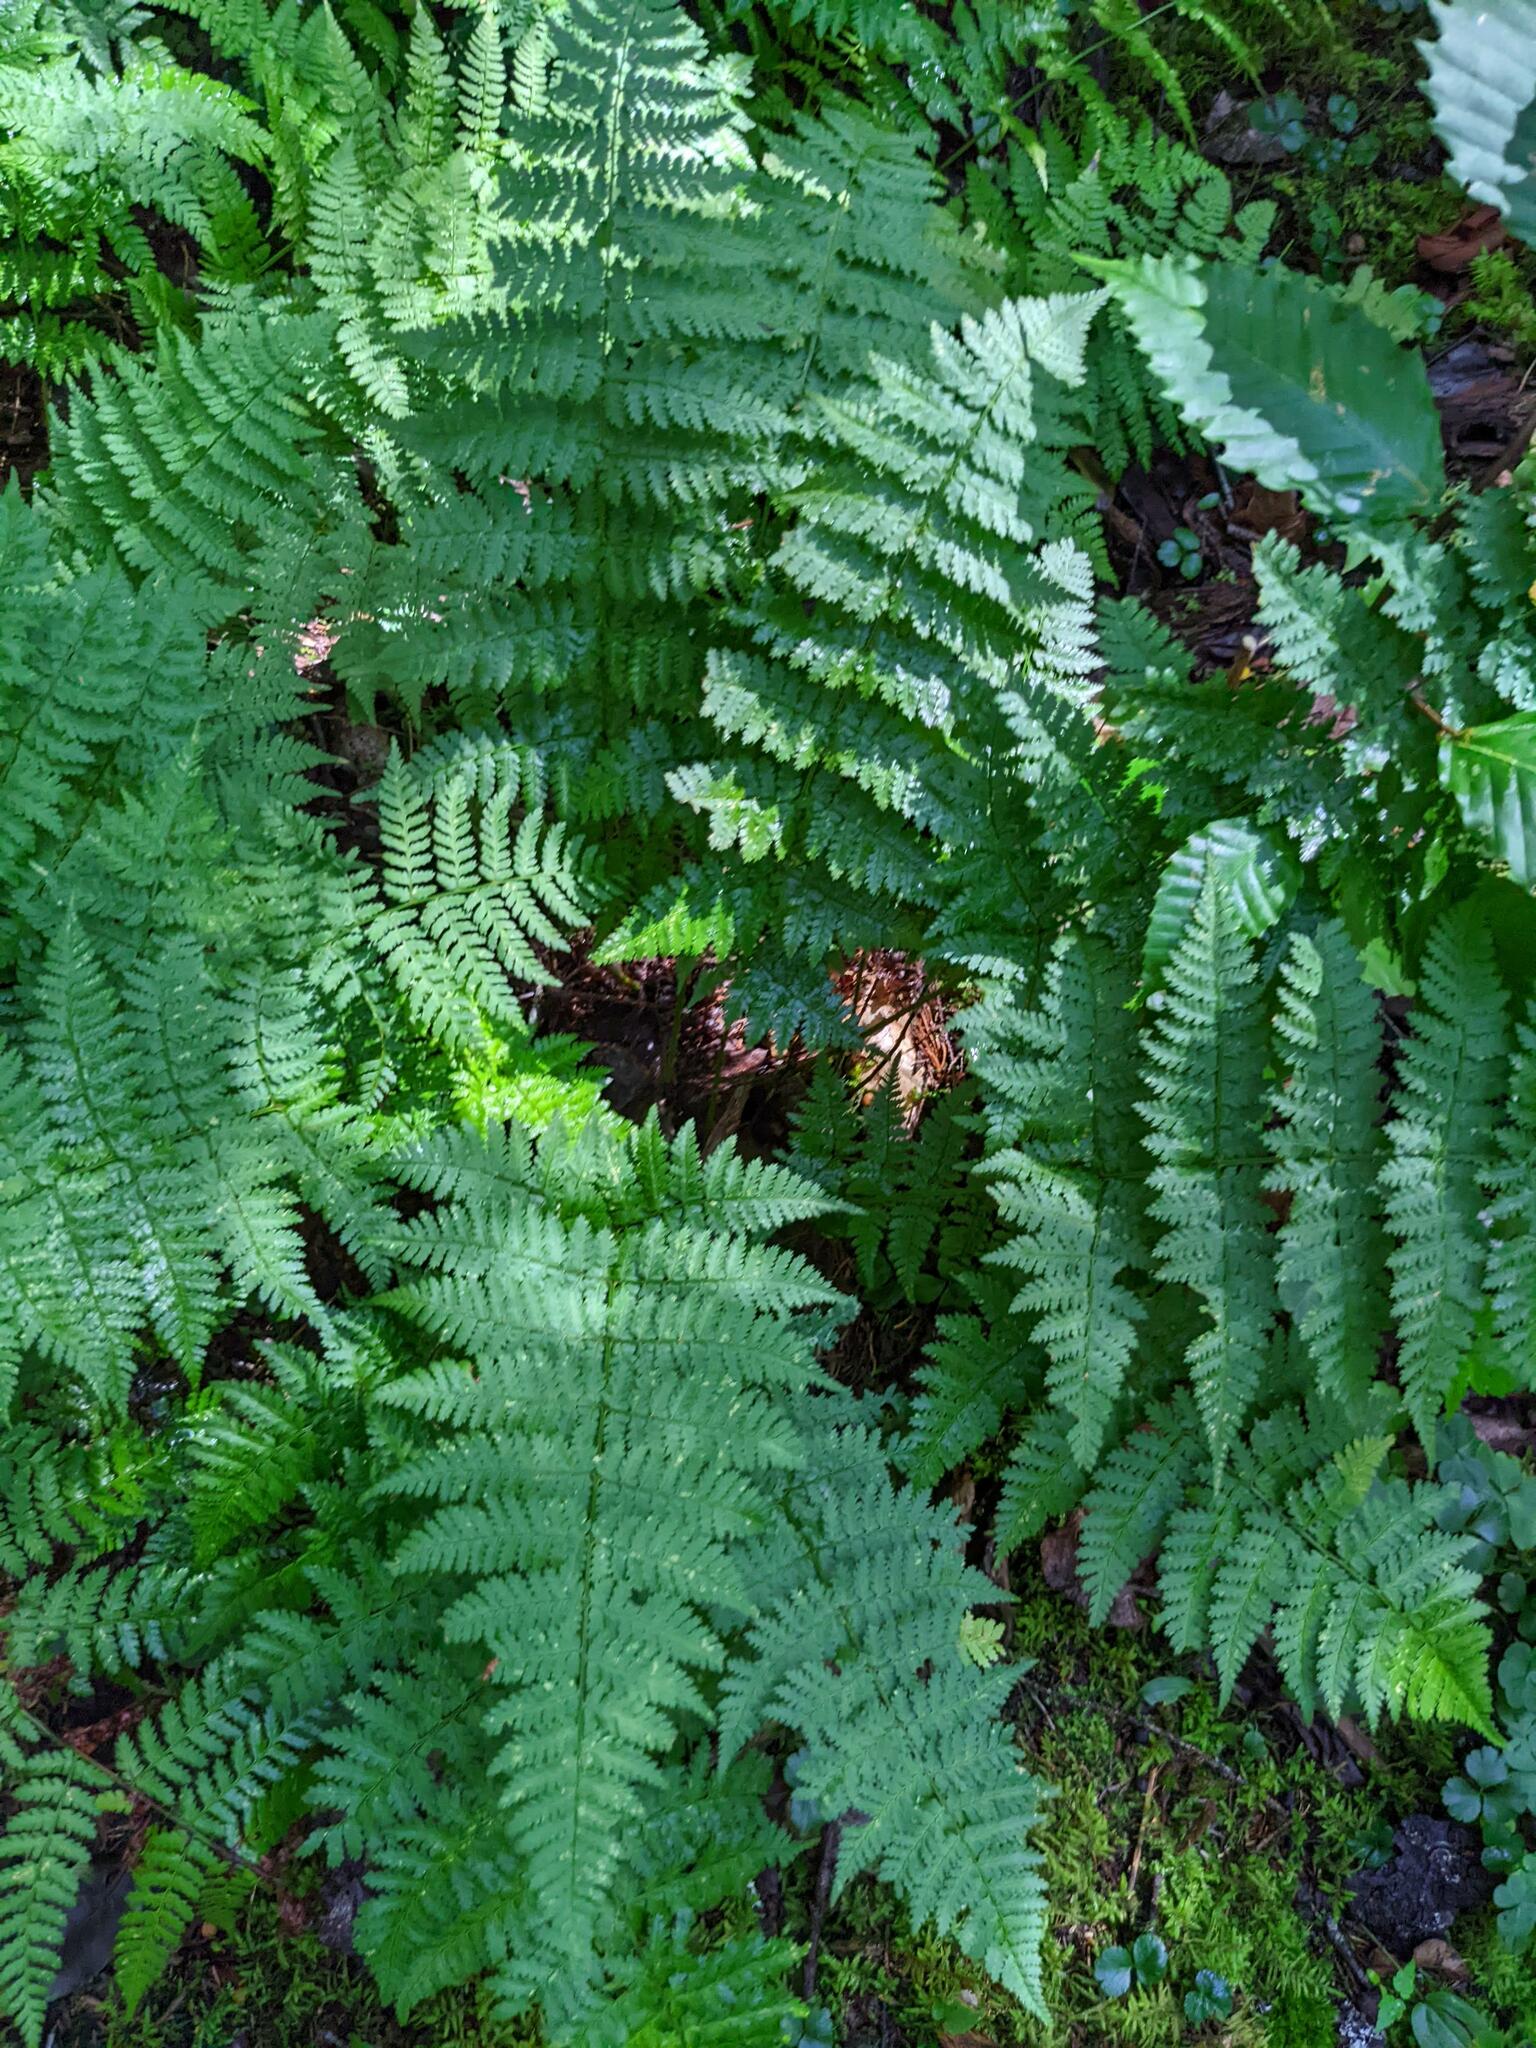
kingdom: Plantae
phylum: Tracheophyta
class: Polypodiopsida
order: Polypodiales
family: Dryopteridaceae
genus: Dryopteris
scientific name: Dryopteris intermedia
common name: Evergreen wood fern
